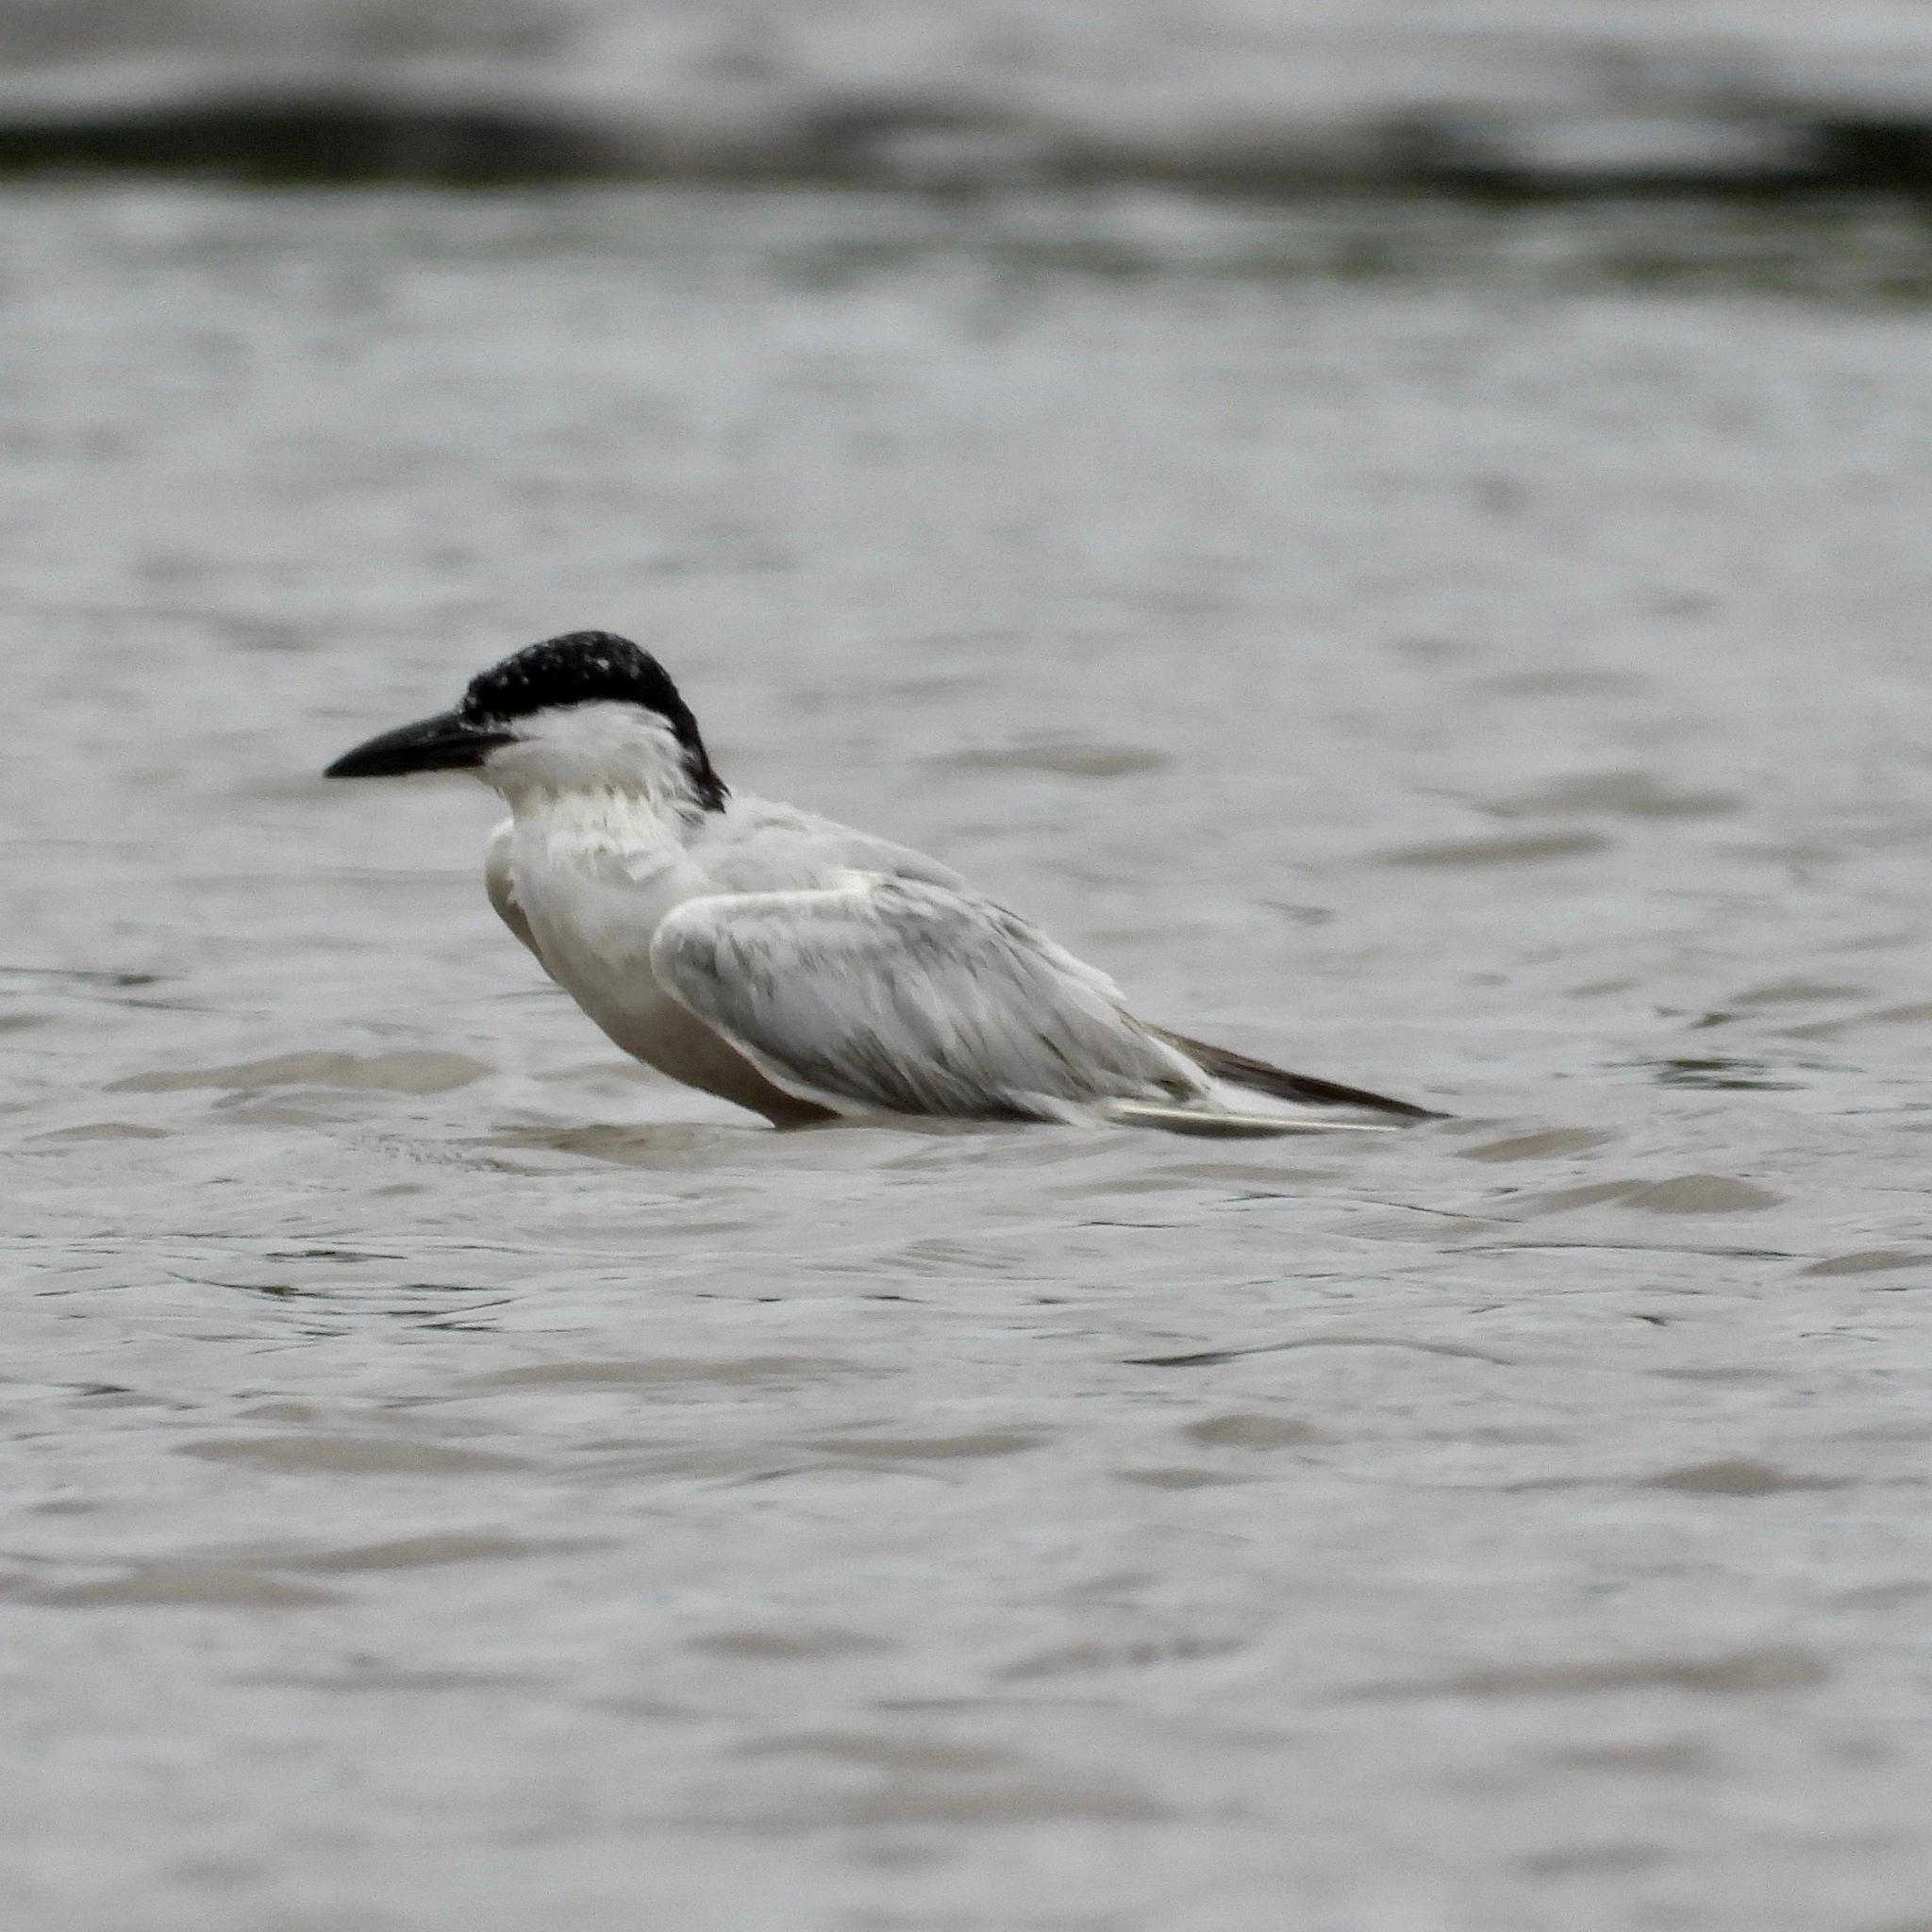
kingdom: Animalia
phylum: Chordata
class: Aves
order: Charadriiformes
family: Laridae
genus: Gelochelidon
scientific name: Gelochelidon nilotica
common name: Gull-billed tern
